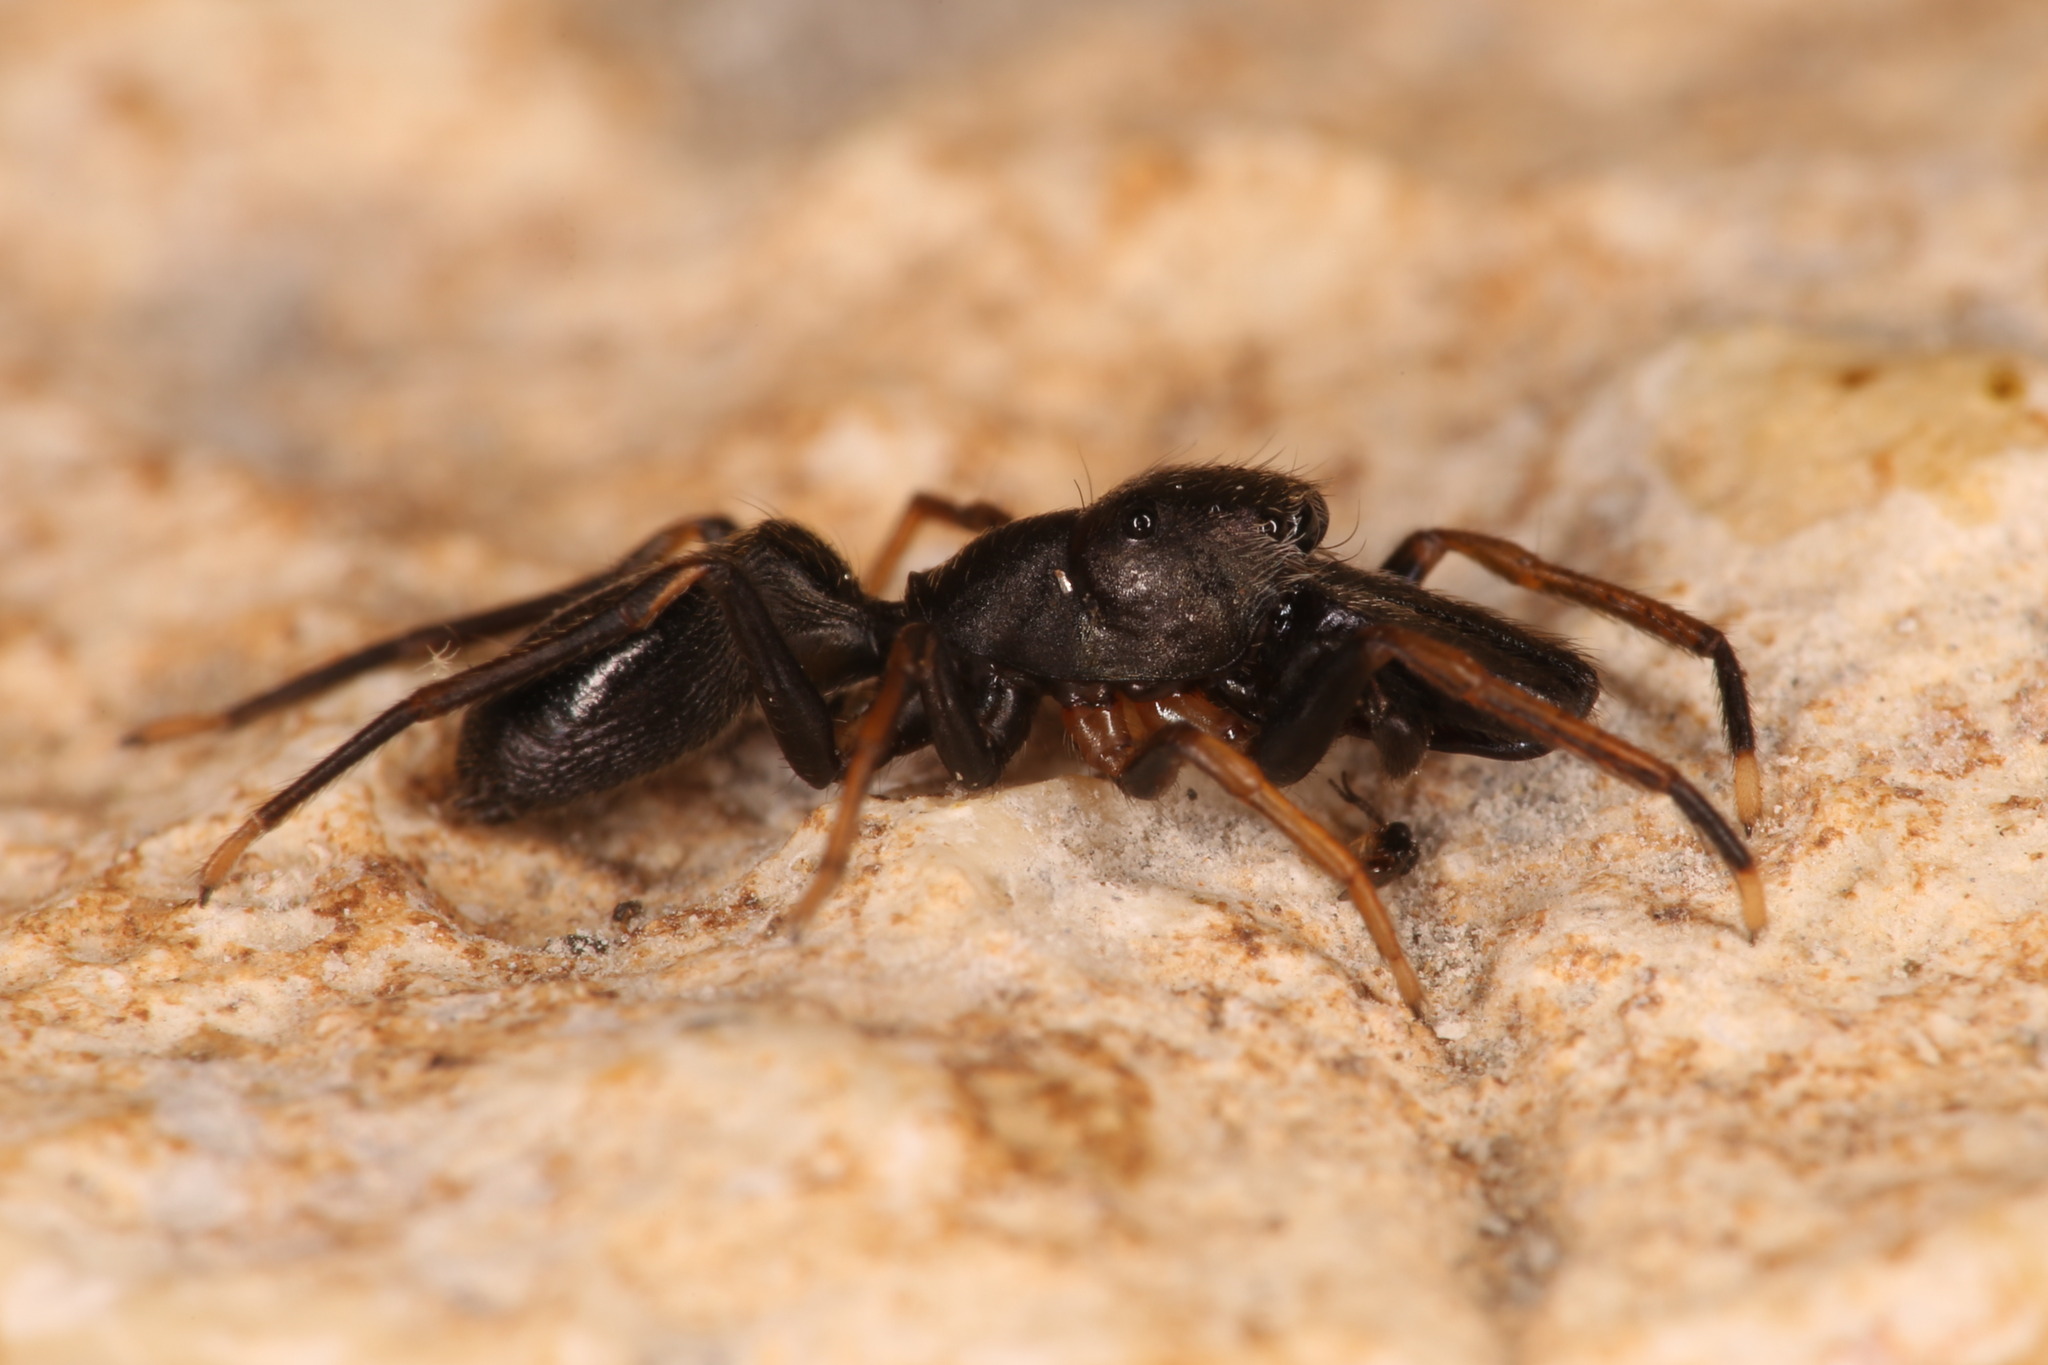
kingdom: Animalia
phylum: Arthropoda
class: Arachnida
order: Araneae
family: Salticidae
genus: Myrmarachne
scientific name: Myrmarachne formicaria
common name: Ant mimic jumping spider
